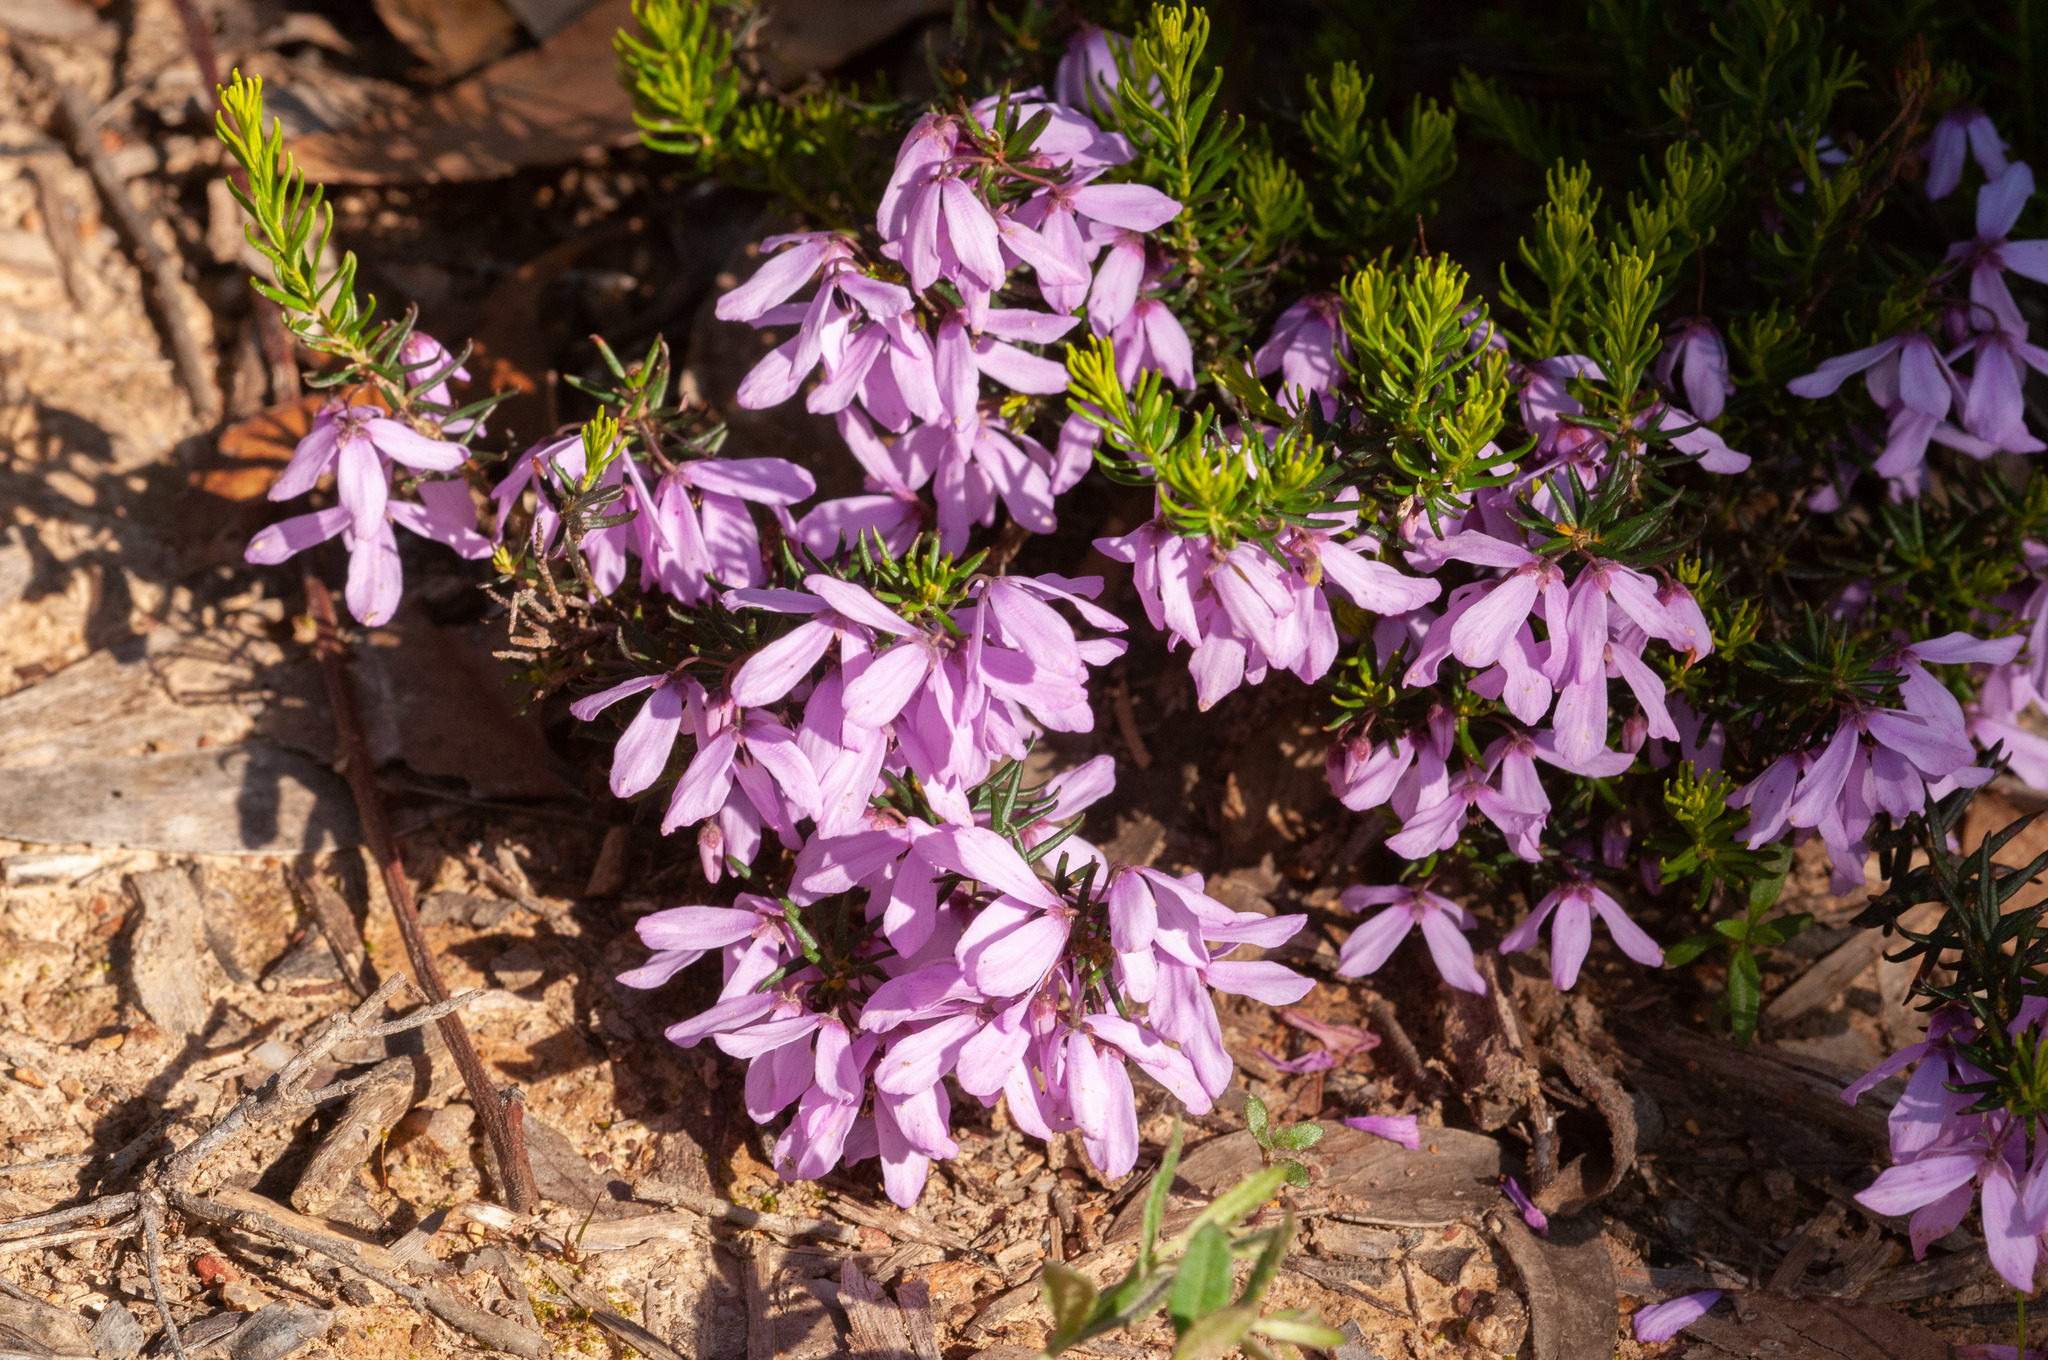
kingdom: Plantae
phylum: Tracheophyta
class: Magnoliopsida
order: Oxalidales
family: Elaeocarpaceae
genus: Tetratheca
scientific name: Tetratheca pilosa
